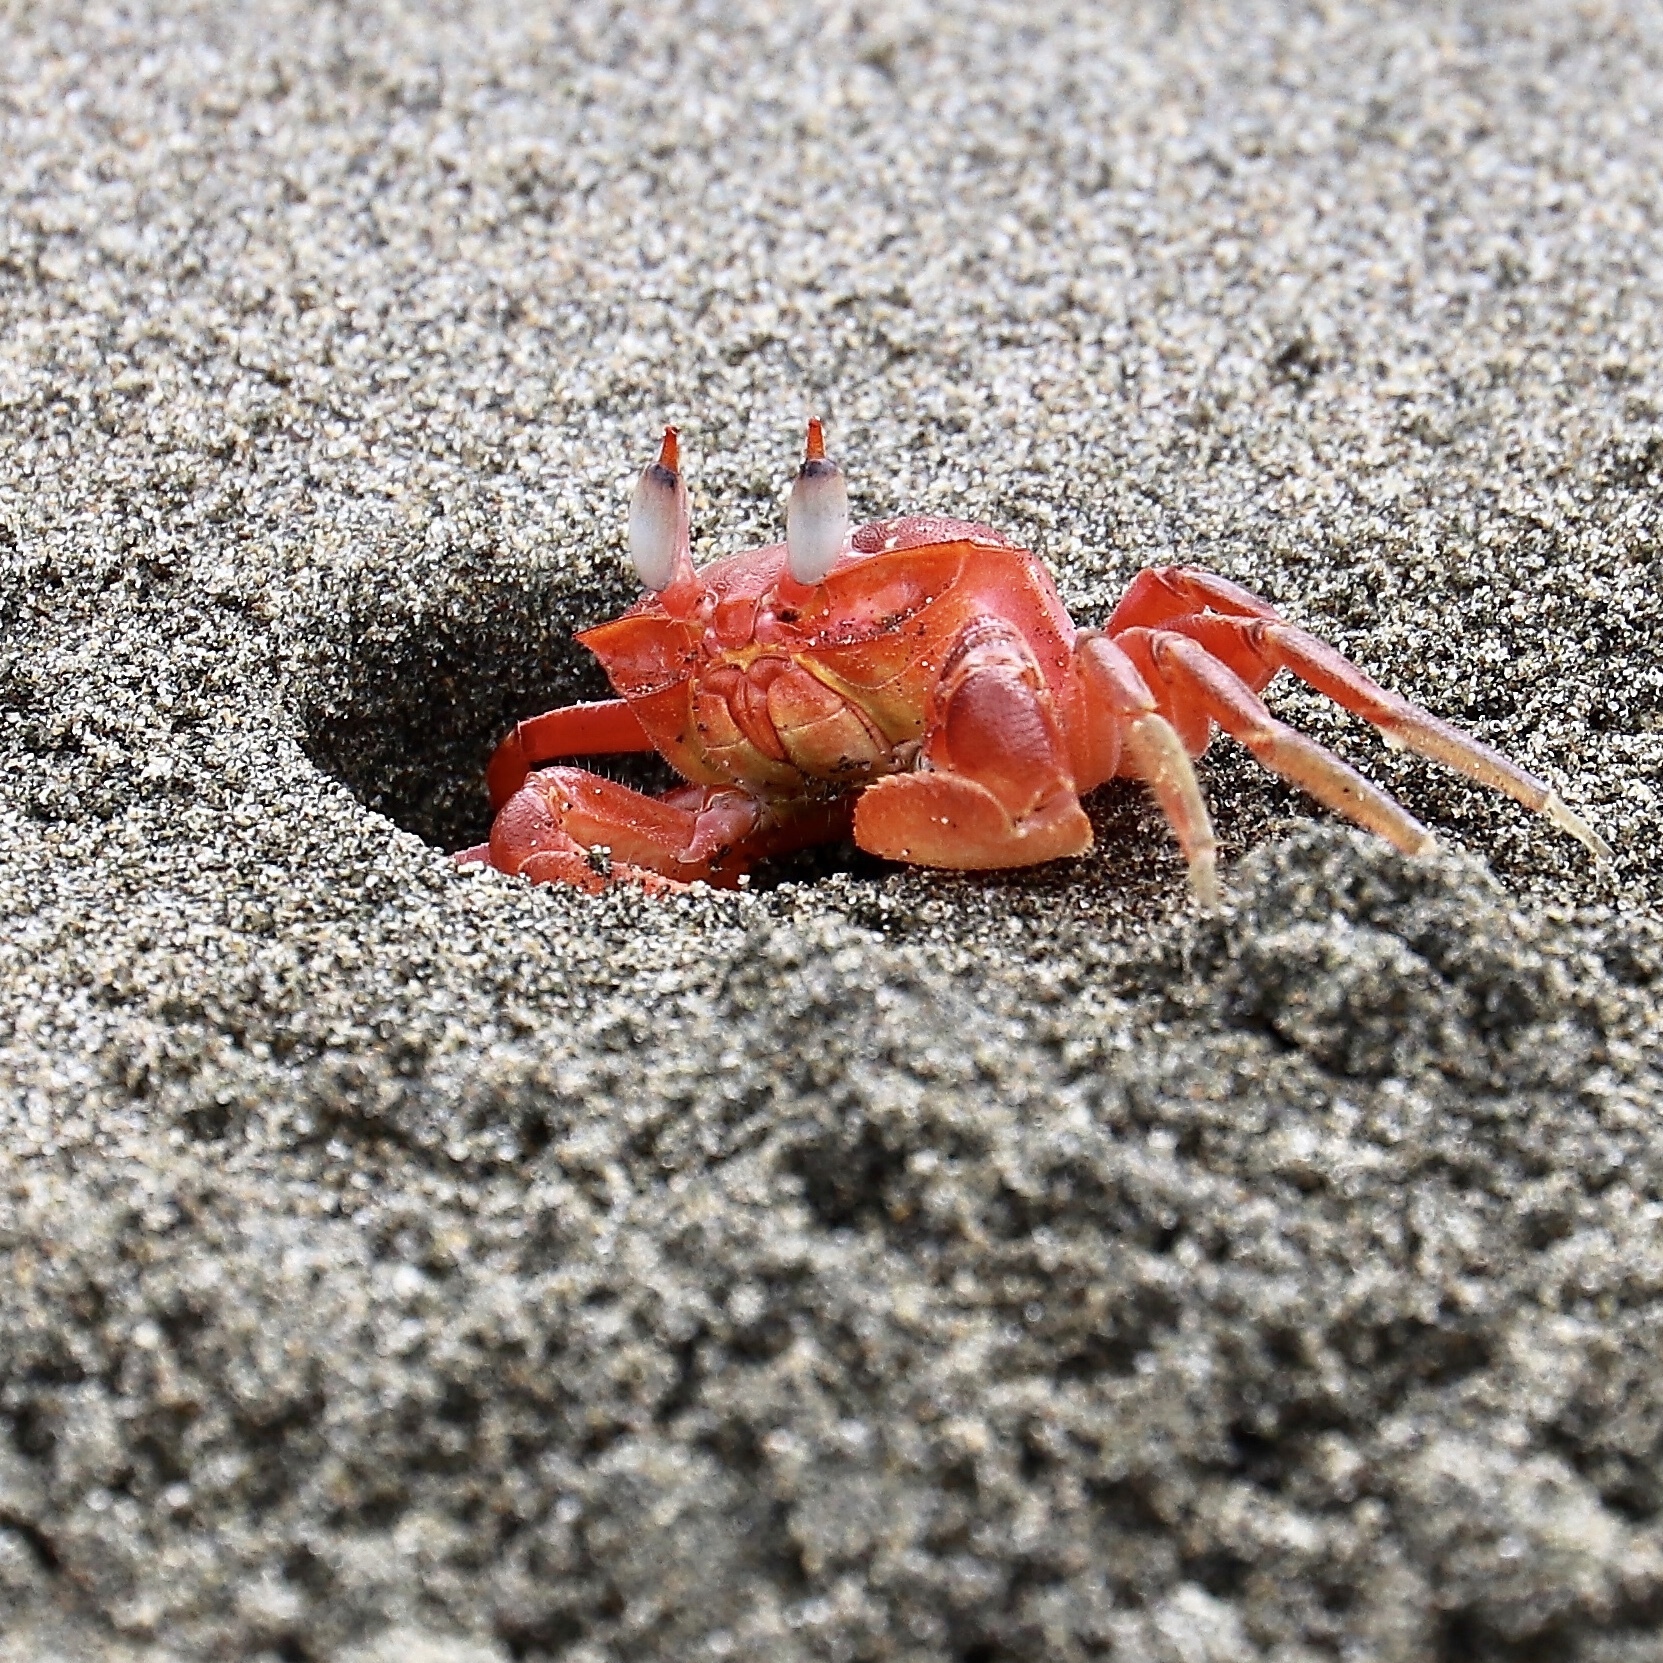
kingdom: Animalia
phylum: Arthropoda
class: Malacostraca
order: Decapoda
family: Ocypodidae
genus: Ocypode
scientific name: Ocypode gaudichaudii
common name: Pacific ghost crab
